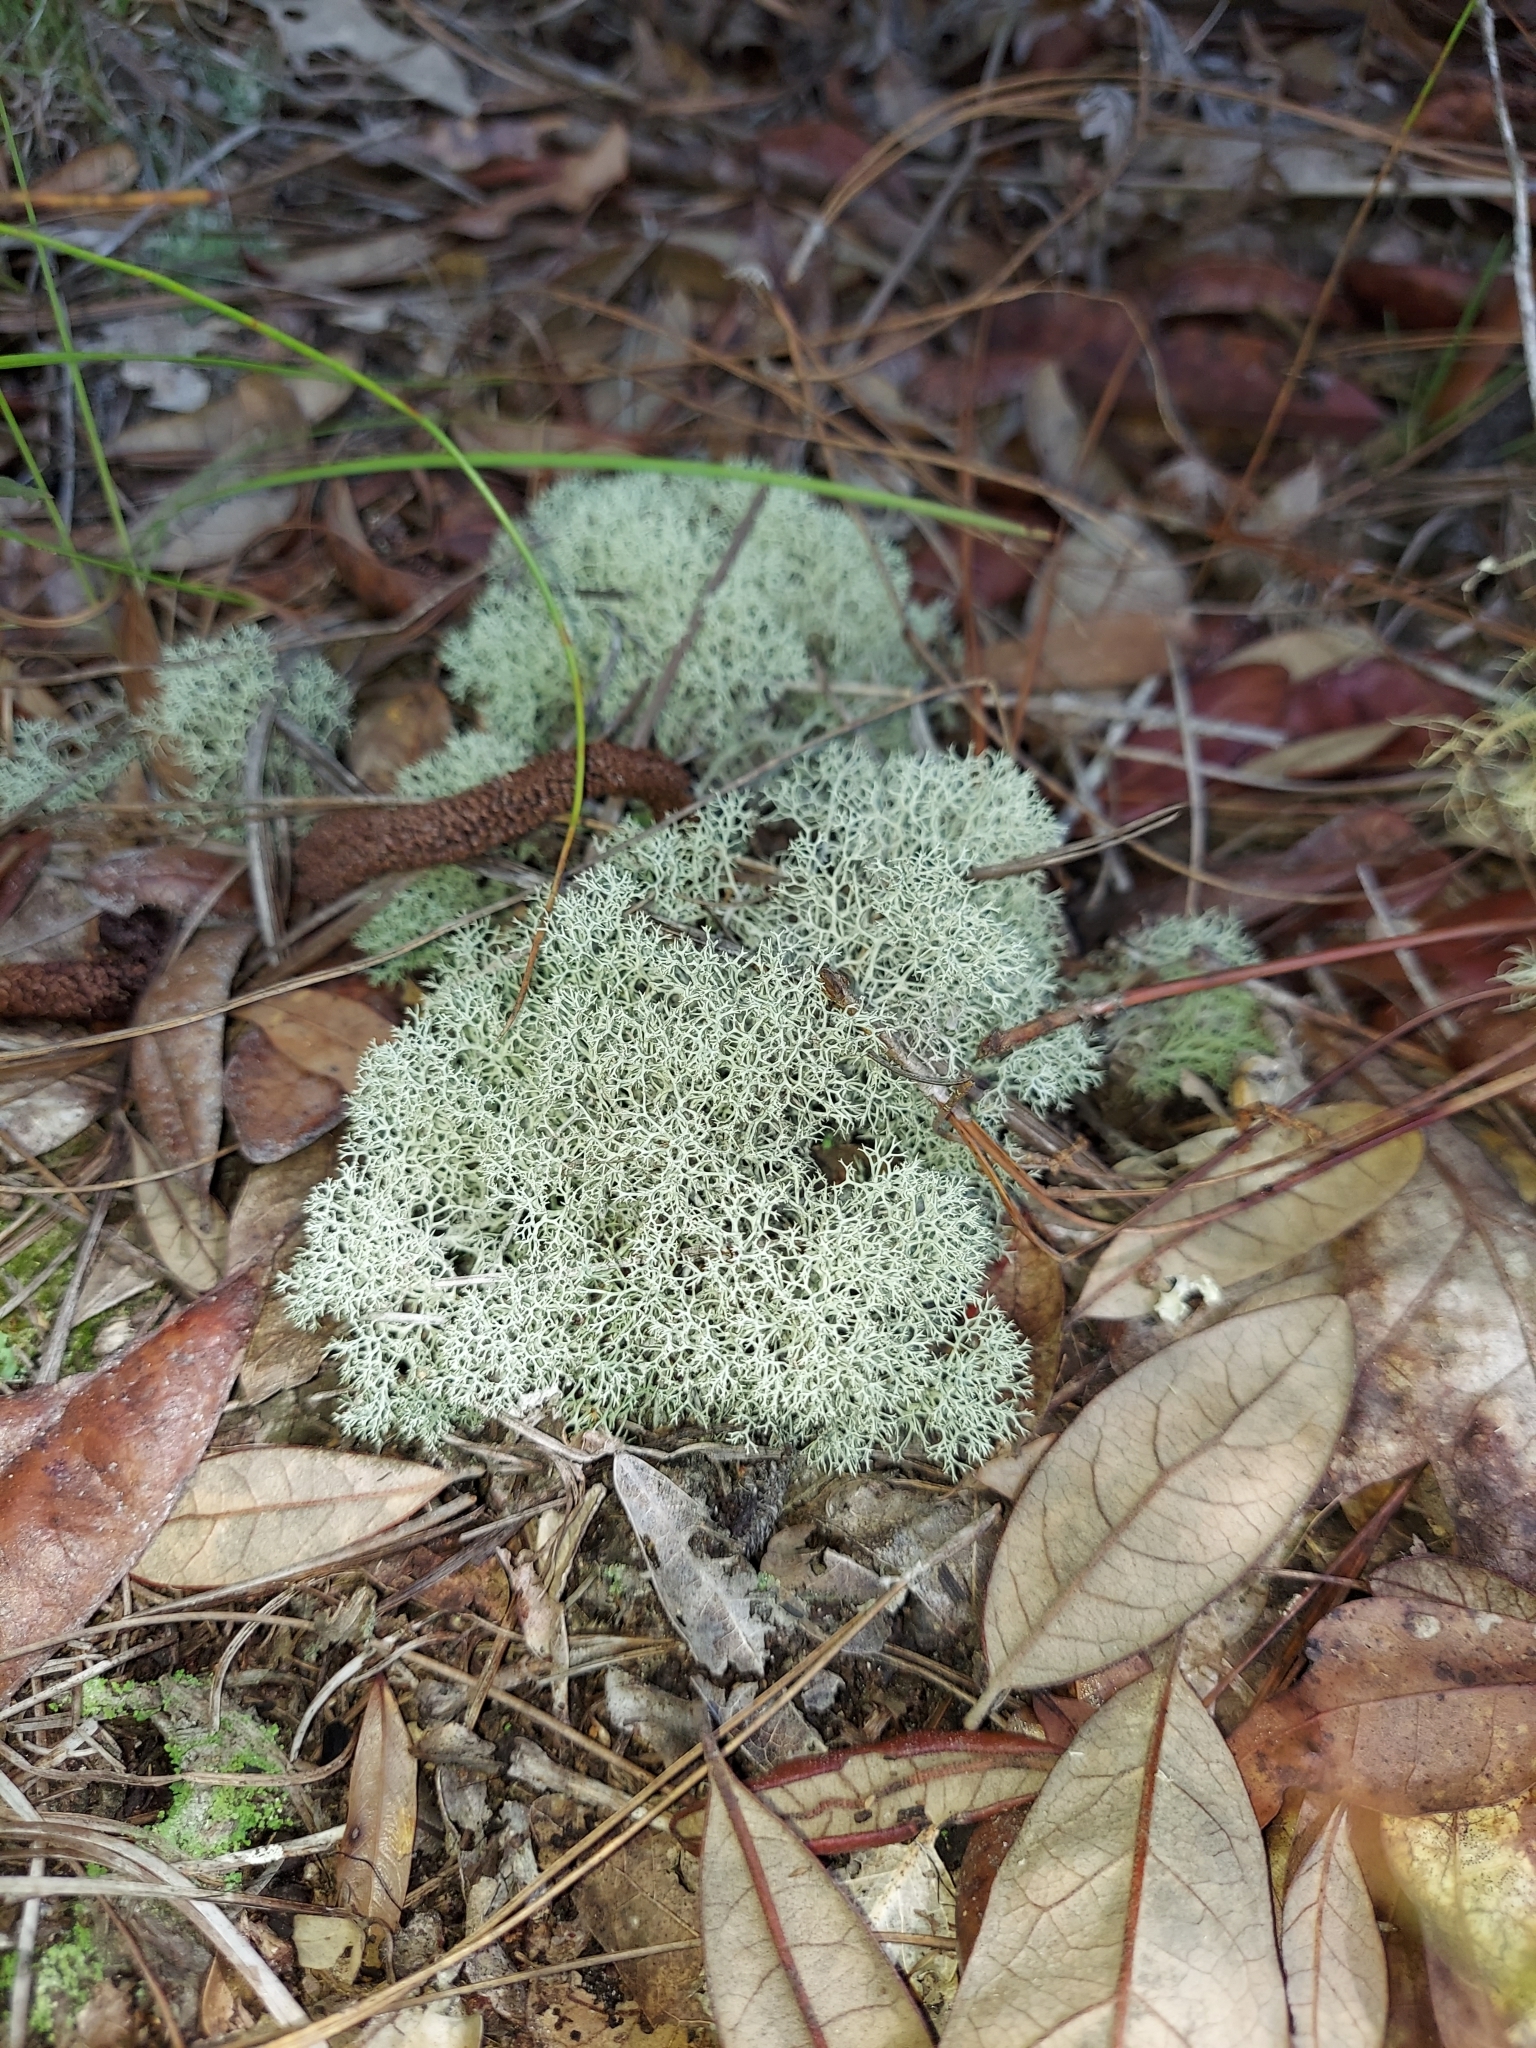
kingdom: Fungi
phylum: Ascomycota
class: Lecanoromycetes
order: Lecanorales
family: Cladoniaceae
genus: Cladonia
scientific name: Cladonia evansii
